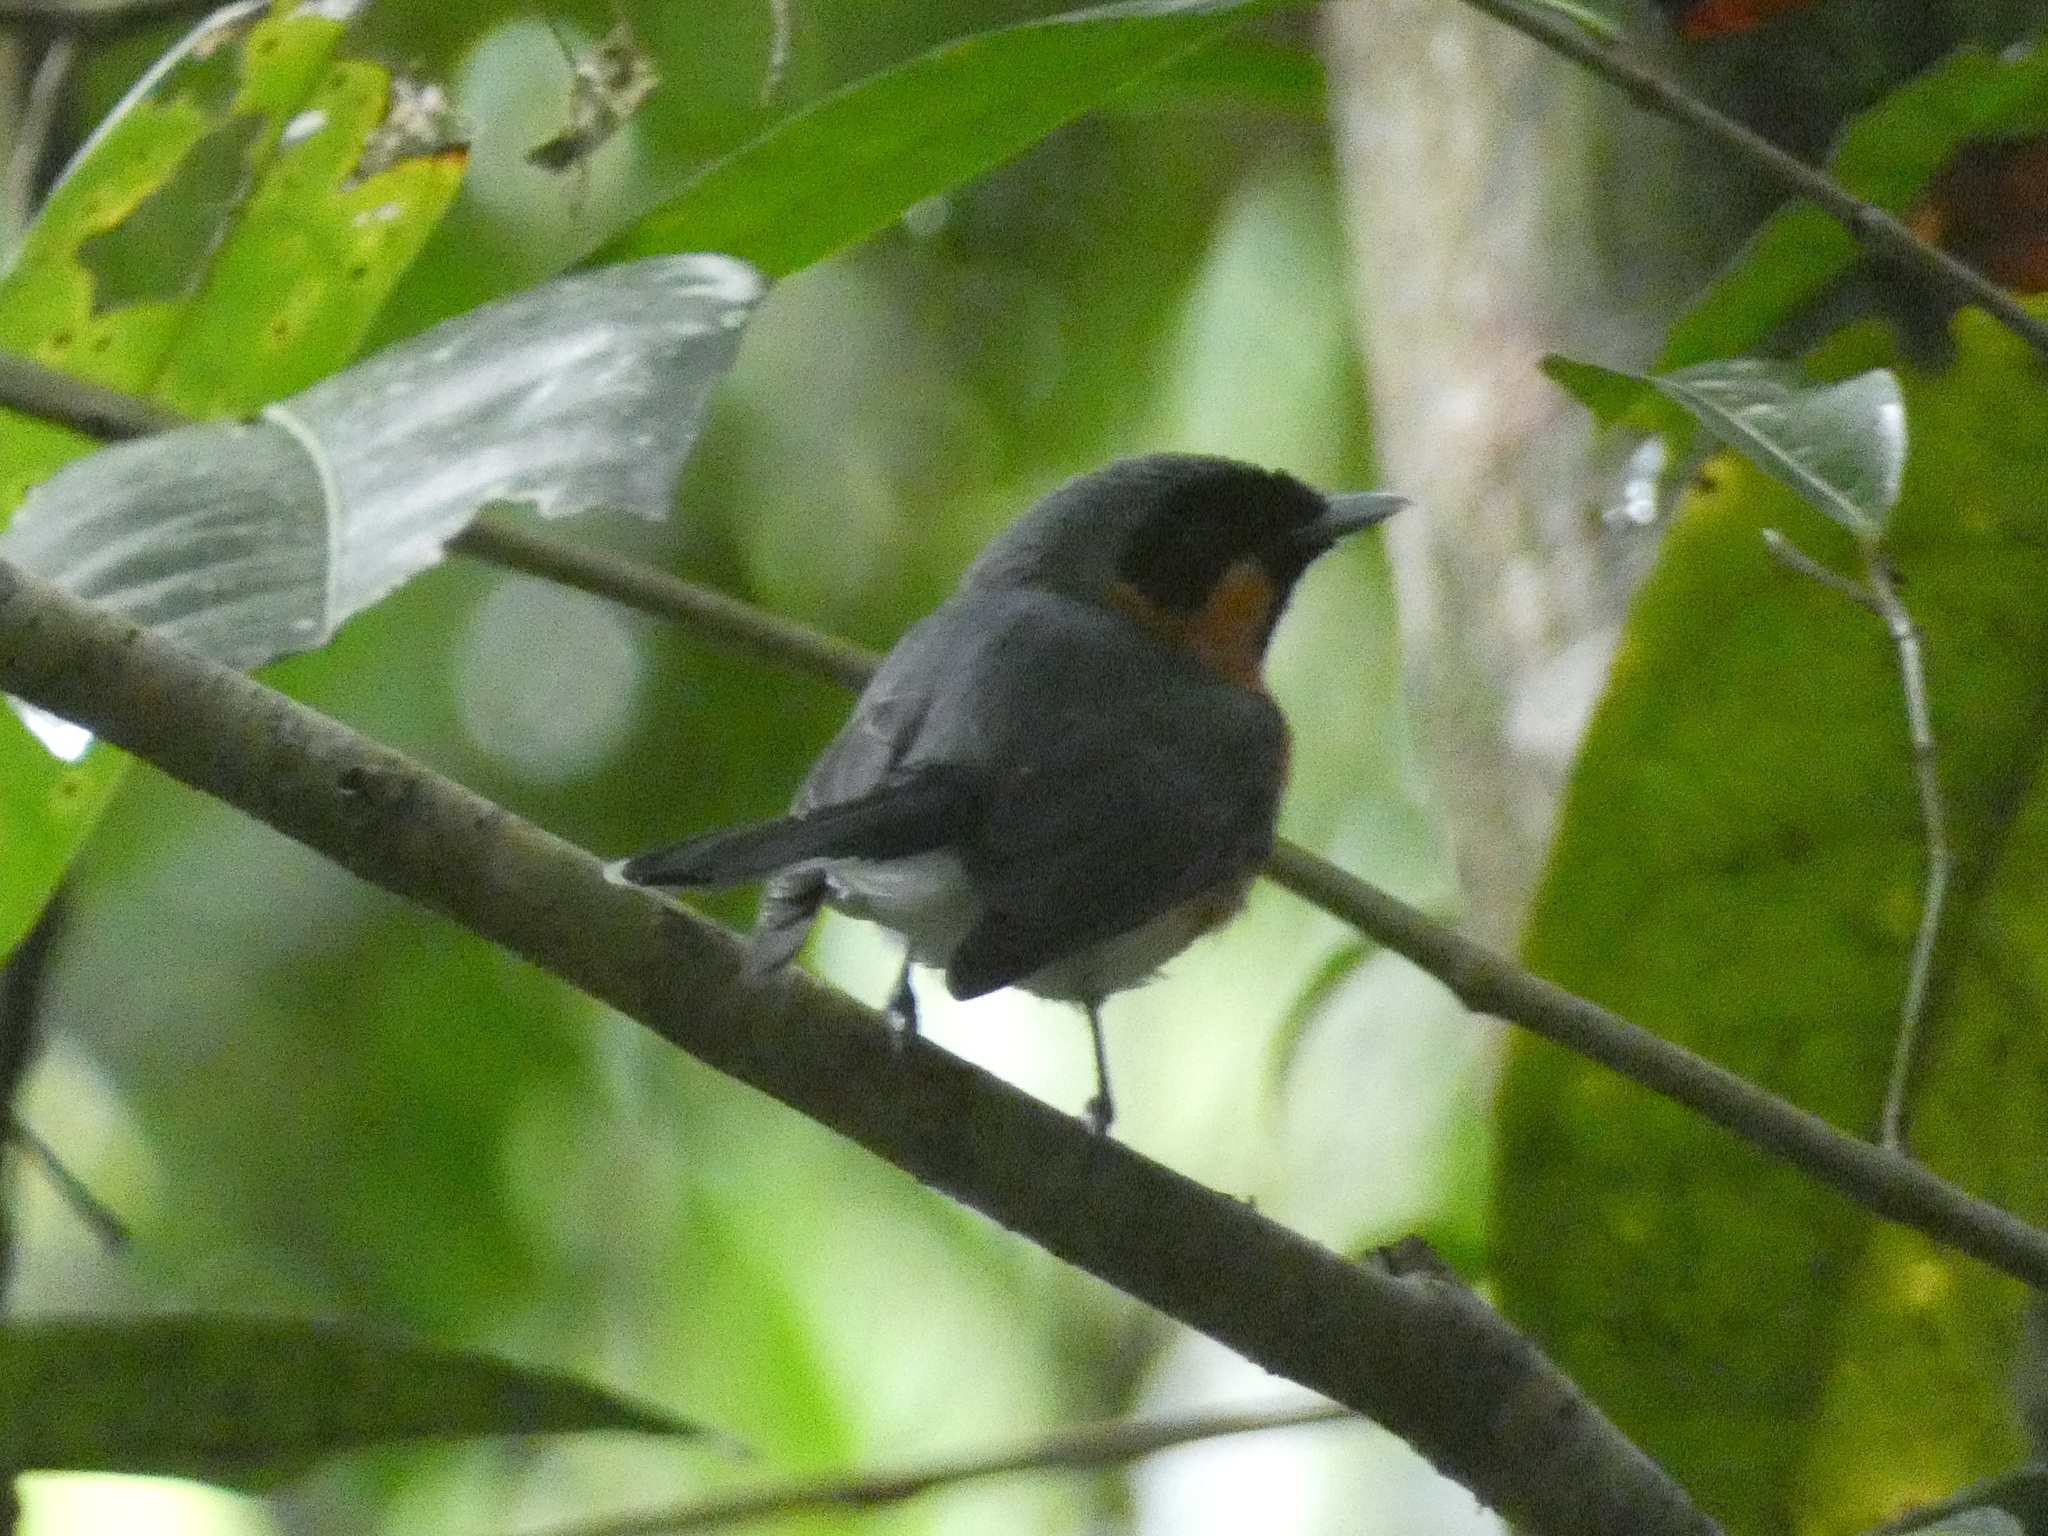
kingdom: Animalia
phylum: Chordata
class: Aves
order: Passeriformes
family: Monarchidae
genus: Symposiachrus
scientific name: Symposiachrus trivirgatus
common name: Spectacled monarch
